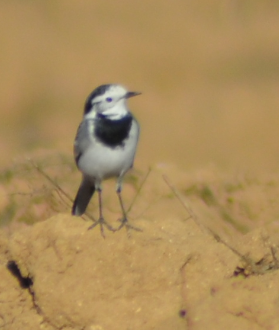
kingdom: Animalia
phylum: Chordata
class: Aves
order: Passeriformes
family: Motacillidae
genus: Motacilla
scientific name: Motacilla alba
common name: White wagtail
